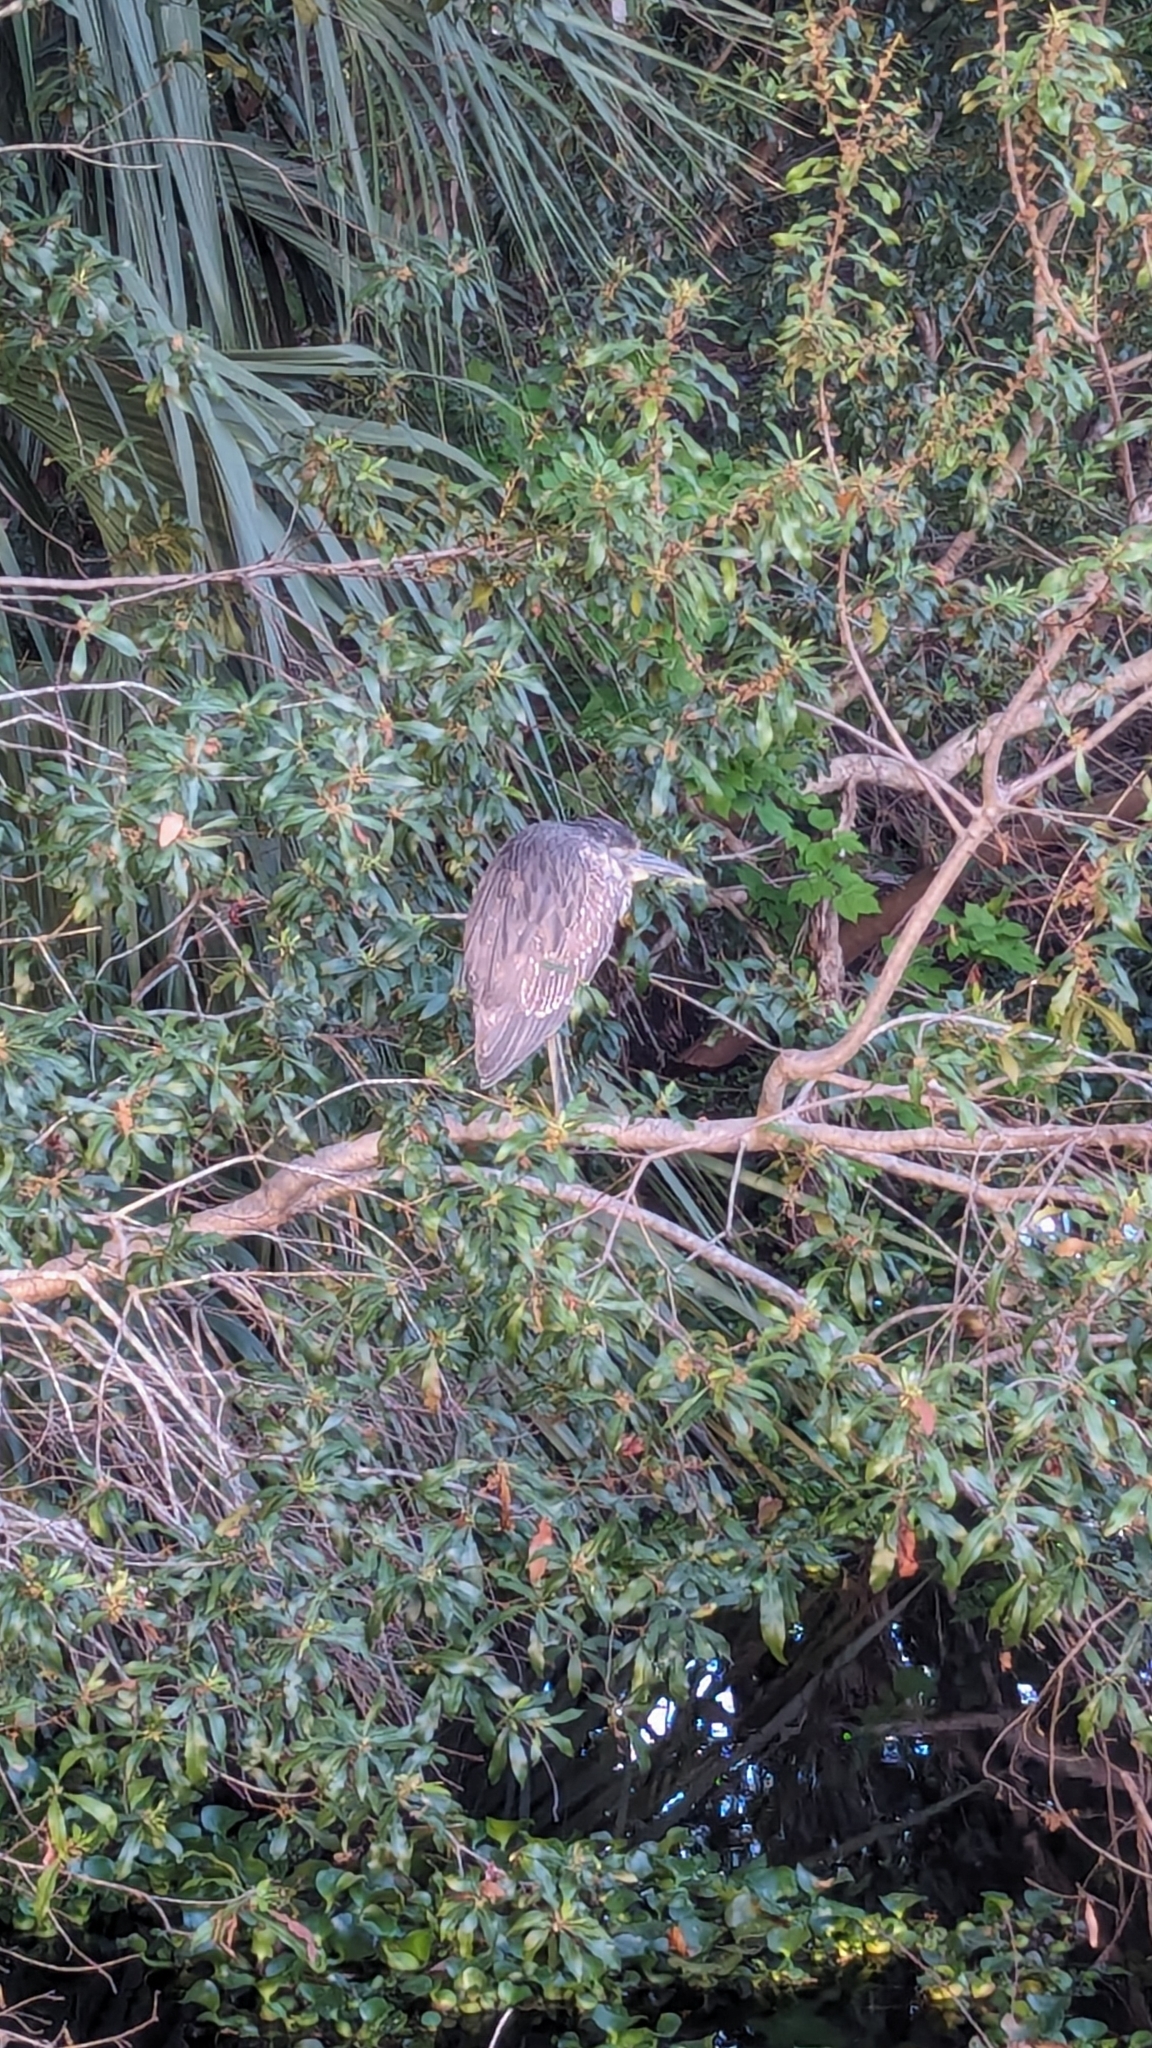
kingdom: Animalia
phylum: Chordata
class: Aves
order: Pelecaniformes
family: Ardeidae
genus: Nycticorax
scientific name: Nycticorax nycticorax
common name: Black-crowned night heron
